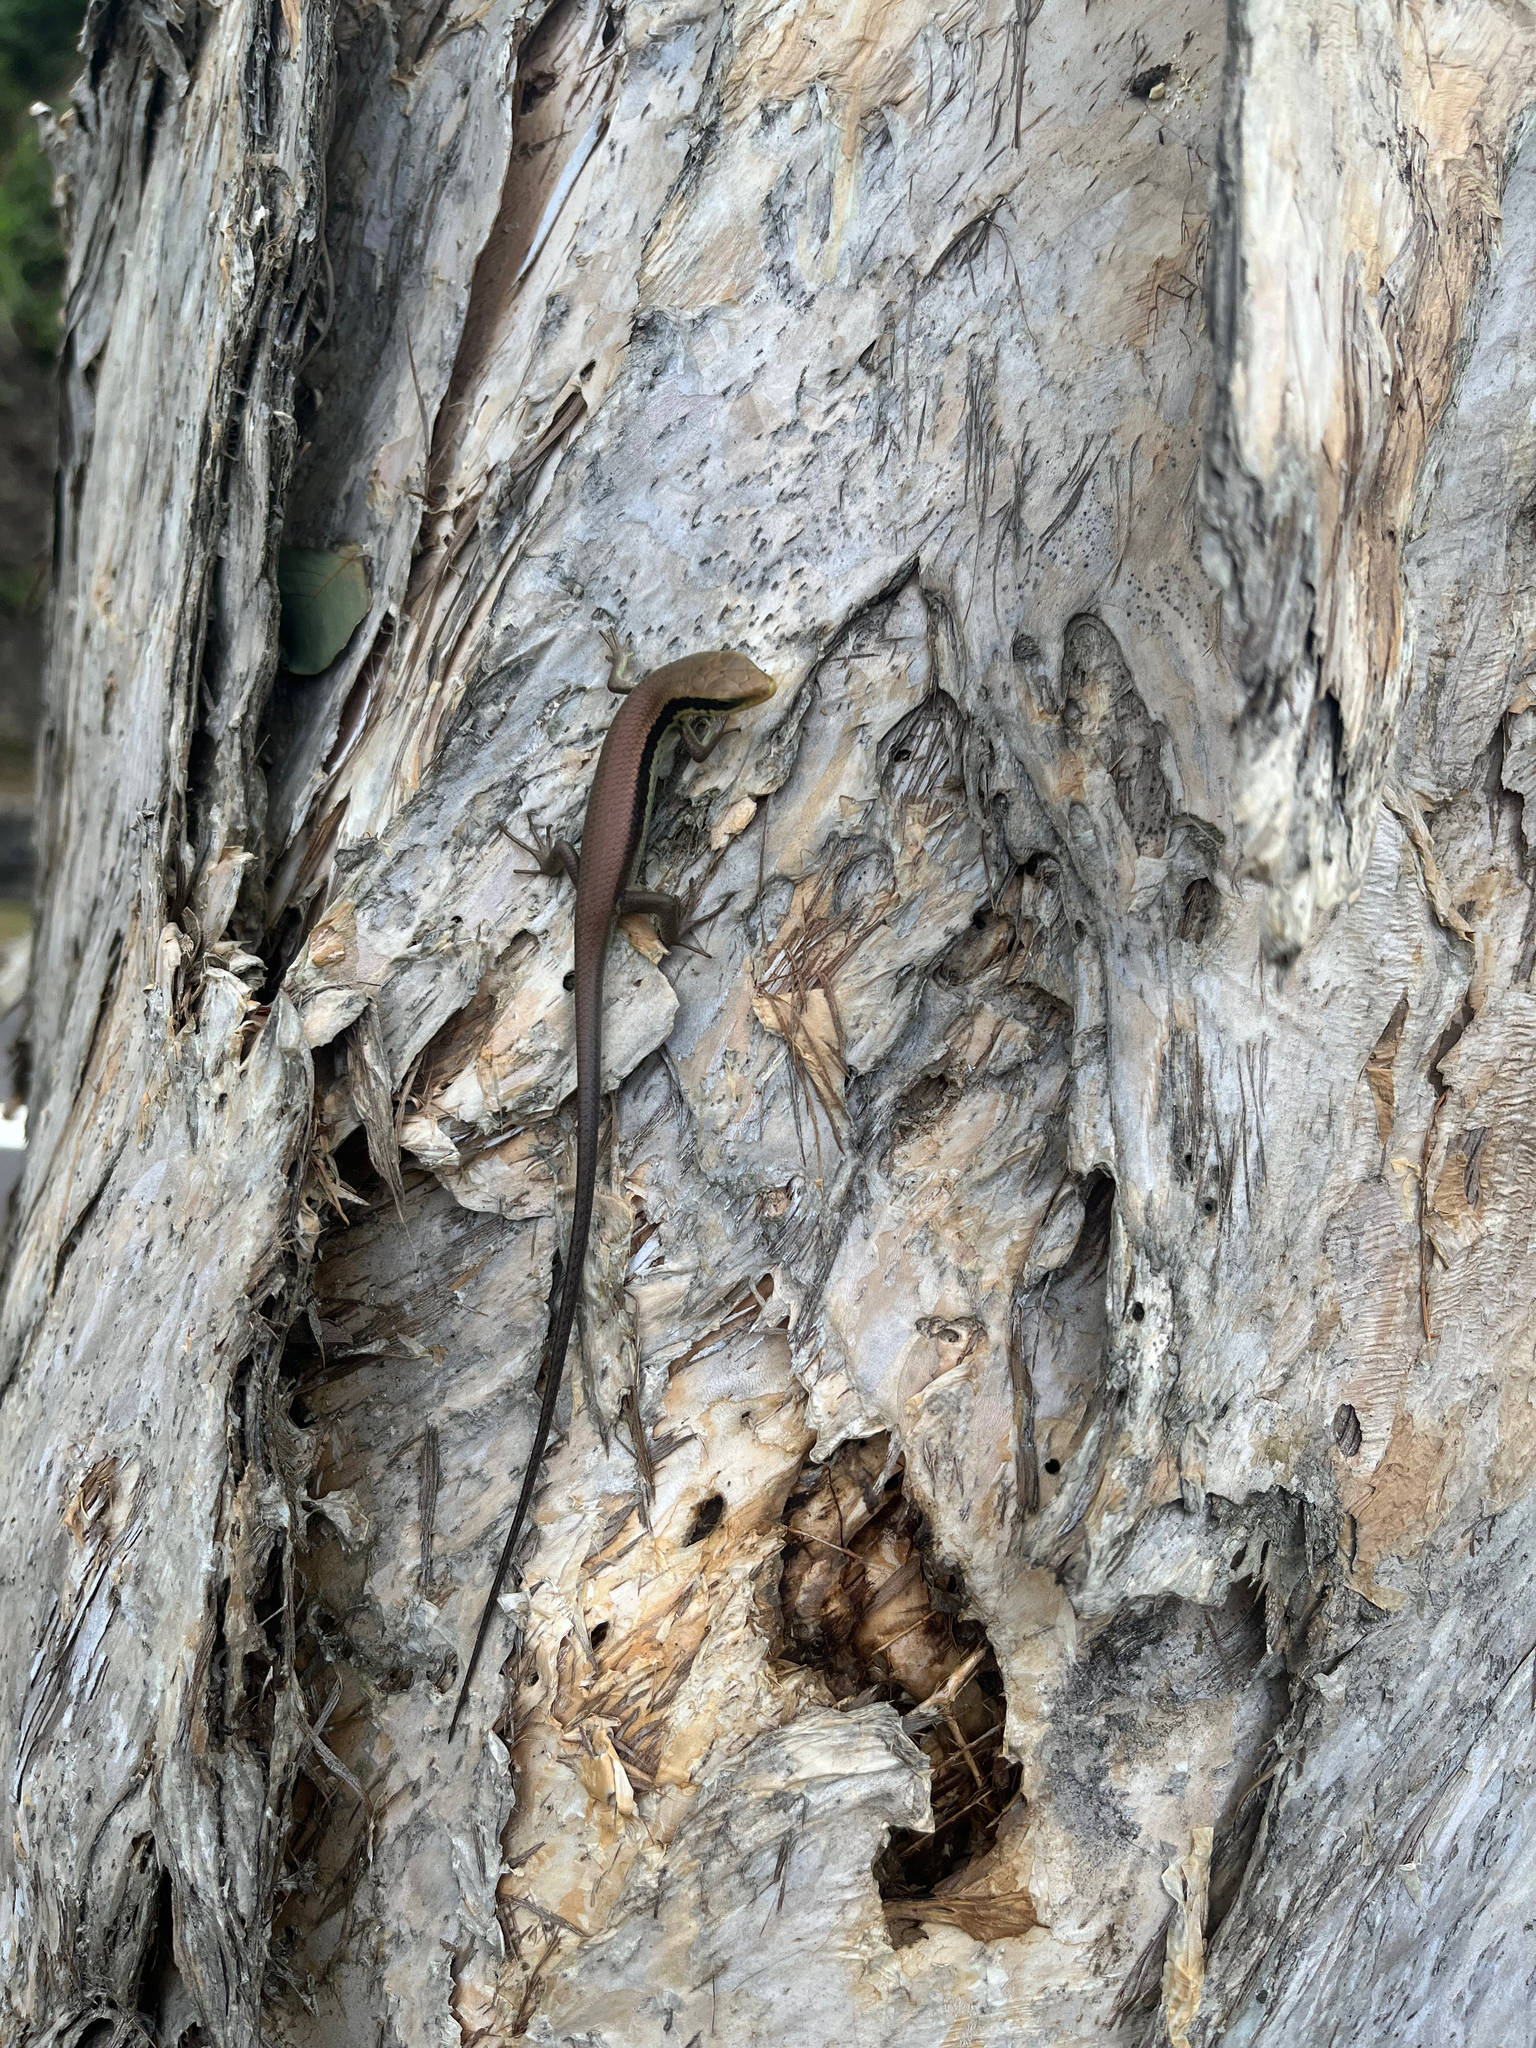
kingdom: Animalia
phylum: Chordata
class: Squamata
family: Scincidae
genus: Eutropis
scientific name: Eutropis longicaudata
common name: Long-tailed sun skink
